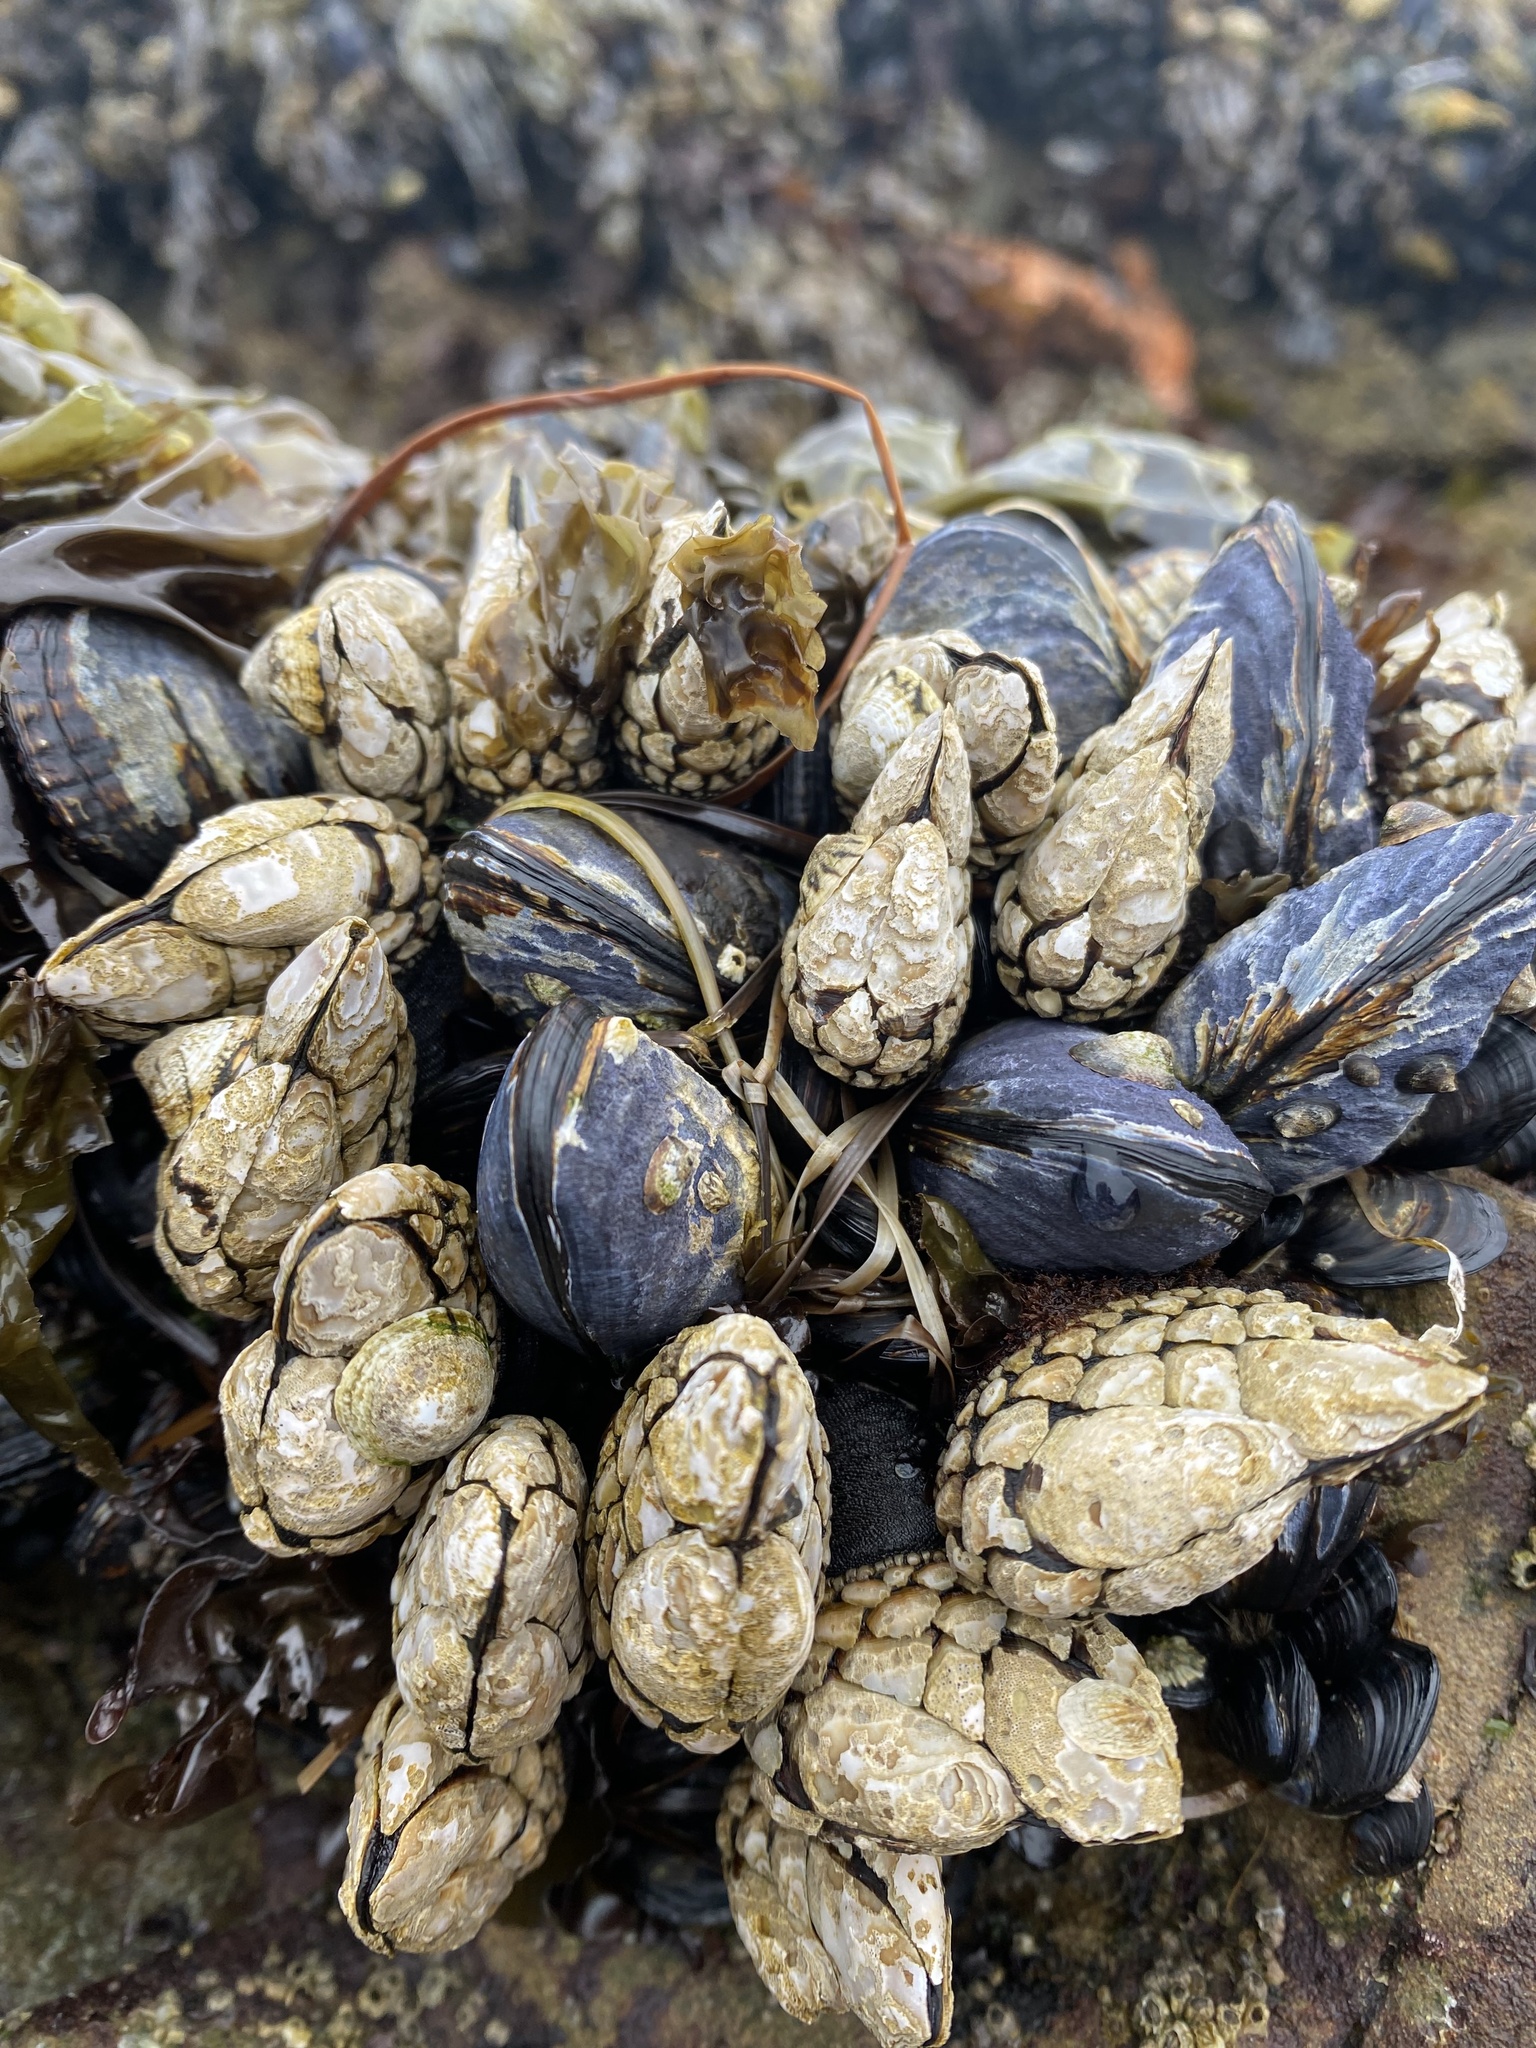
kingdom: Animalia
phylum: Arthropoda
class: Maxillopoda
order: Pedunculata
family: Pollicipedidae
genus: Pollicipes
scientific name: Pollicipes polymerus
